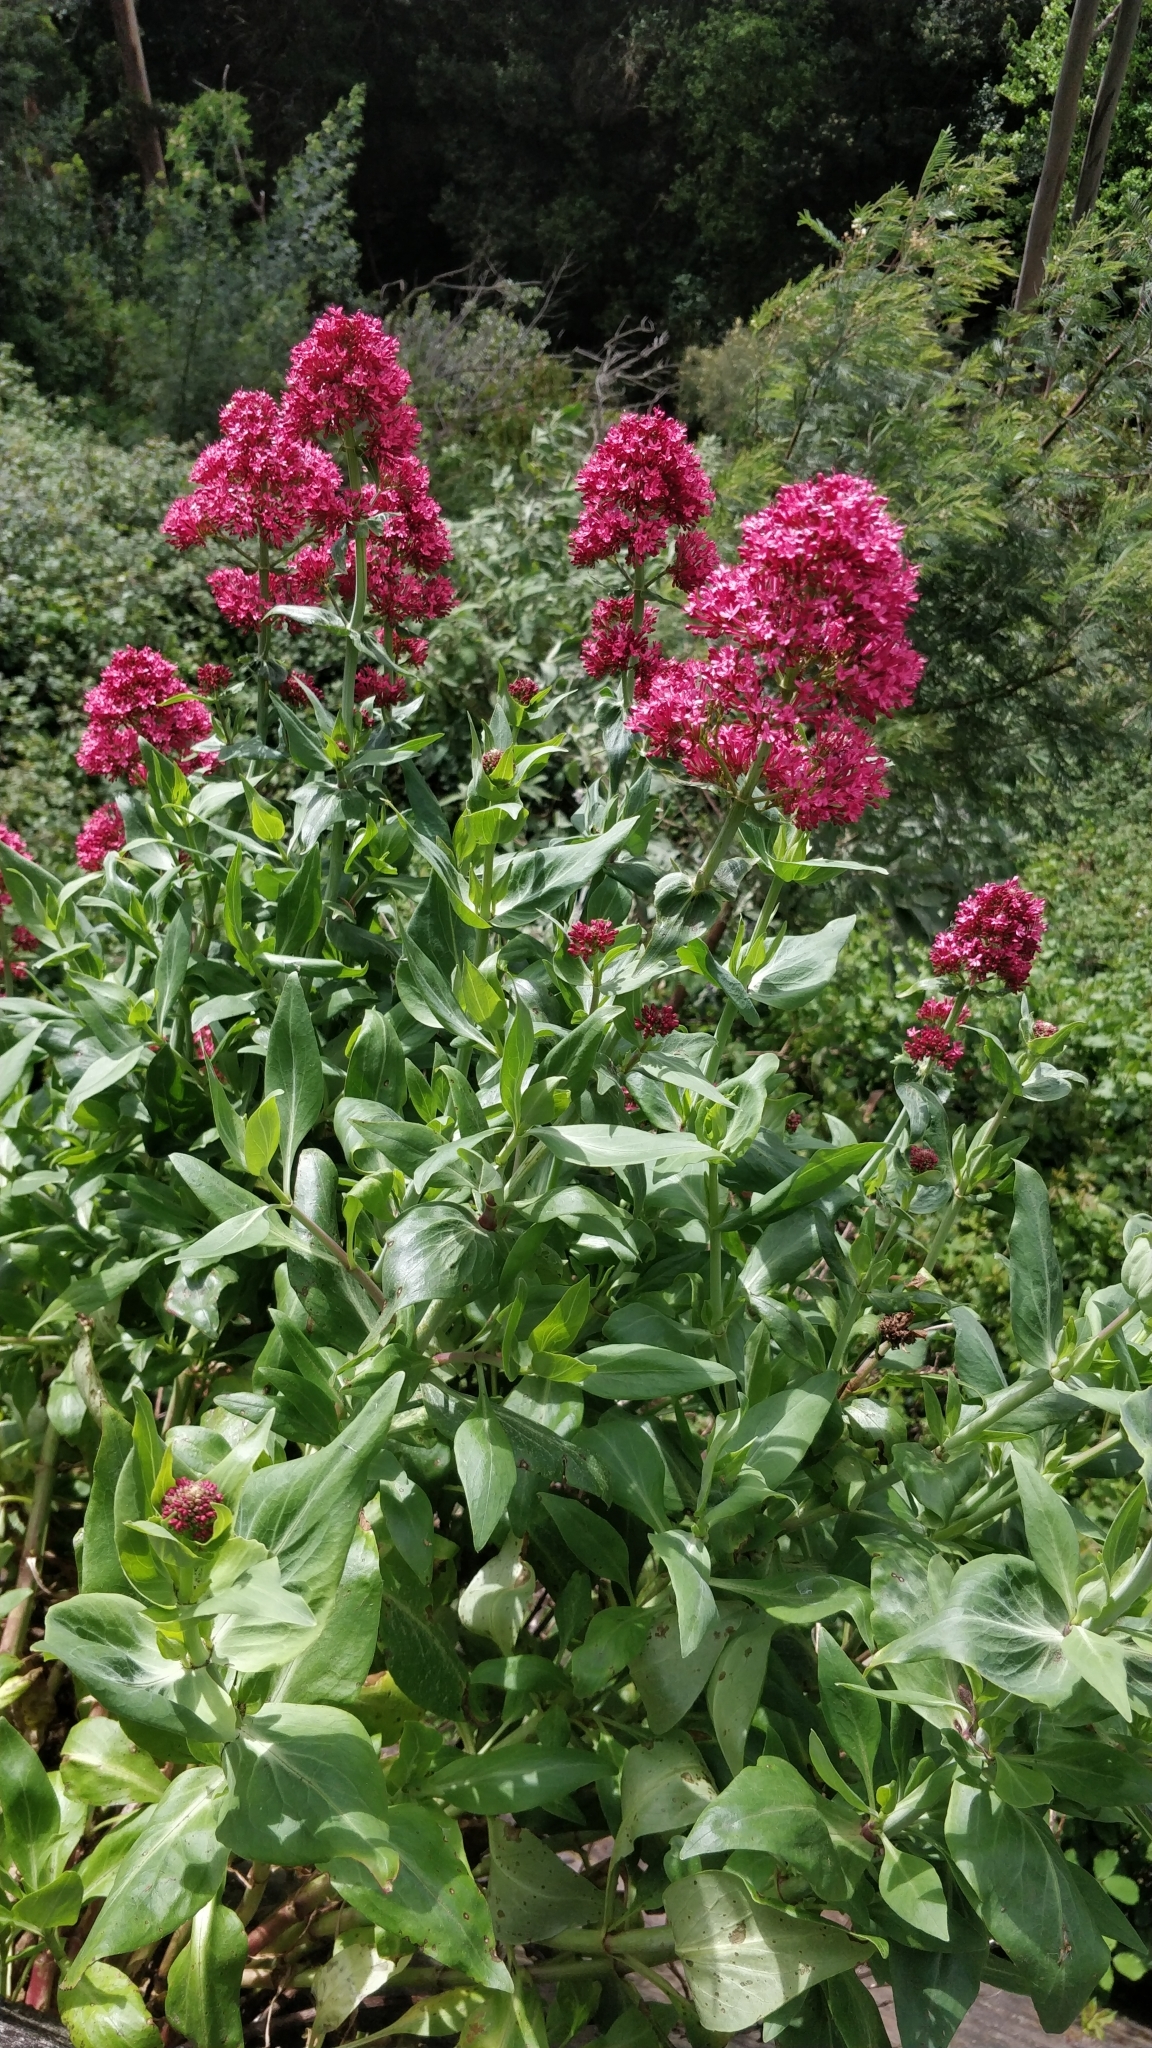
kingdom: Plantae
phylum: Tracheophyta
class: Magnoliopsida
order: Dipsacales
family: Caprifoliaceae
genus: Centranthus
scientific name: Centranthus ruber
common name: Red valerian
